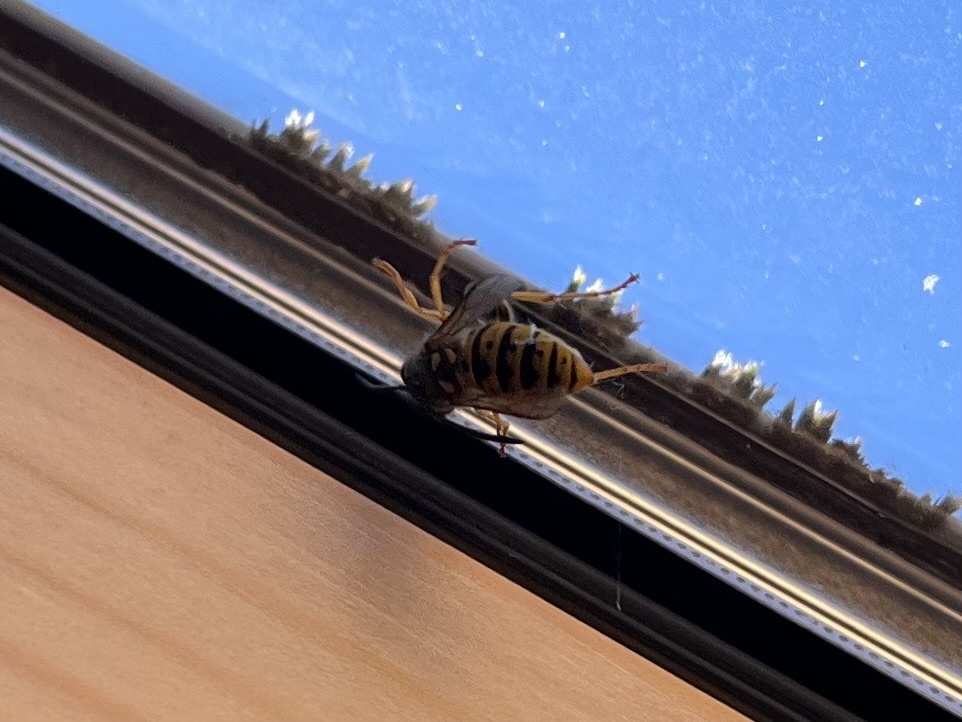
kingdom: Animalia
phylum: Arthropoda
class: Insecta
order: Hymenoptera
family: Vespidae
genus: Vespula
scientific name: Vespula germanica
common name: German wasp
